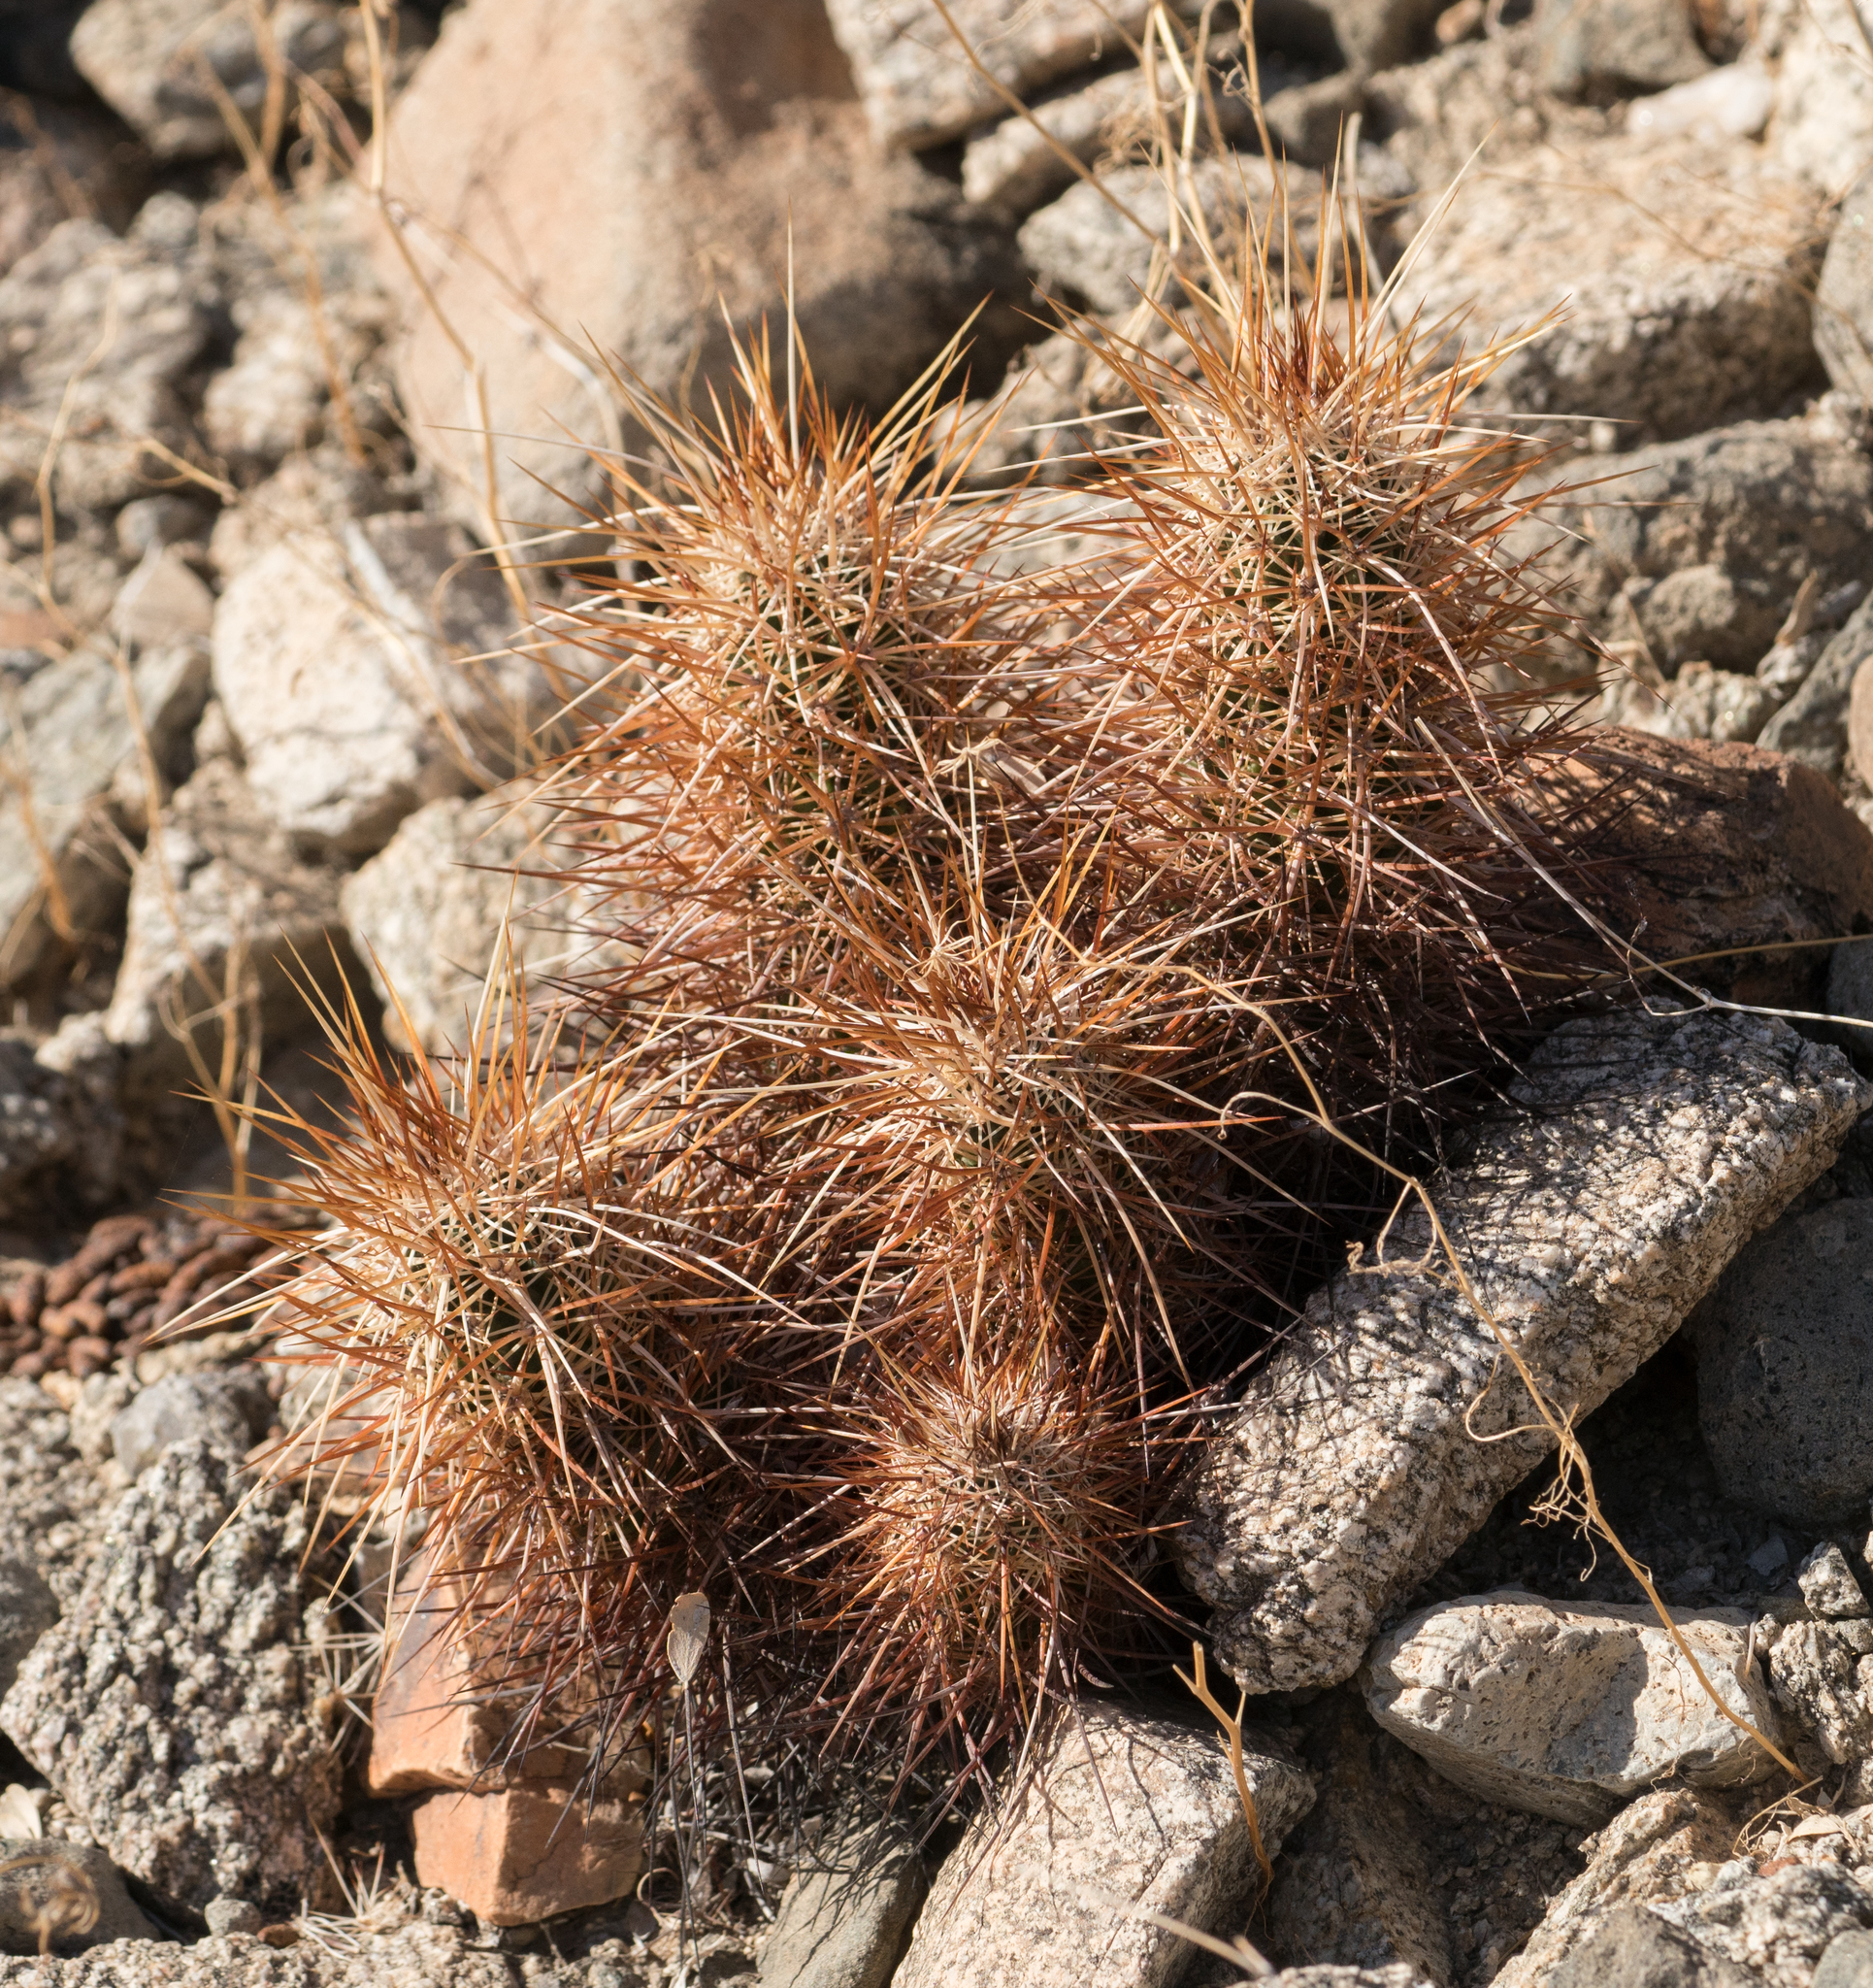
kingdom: Plantae
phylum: Tracheophyta
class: Magnoliopsida
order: Caryophyllales
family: Cactaceae
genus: Echinocereus
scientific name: Echinocereus engelmannii
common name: Engelmann's hedgehog cactus
